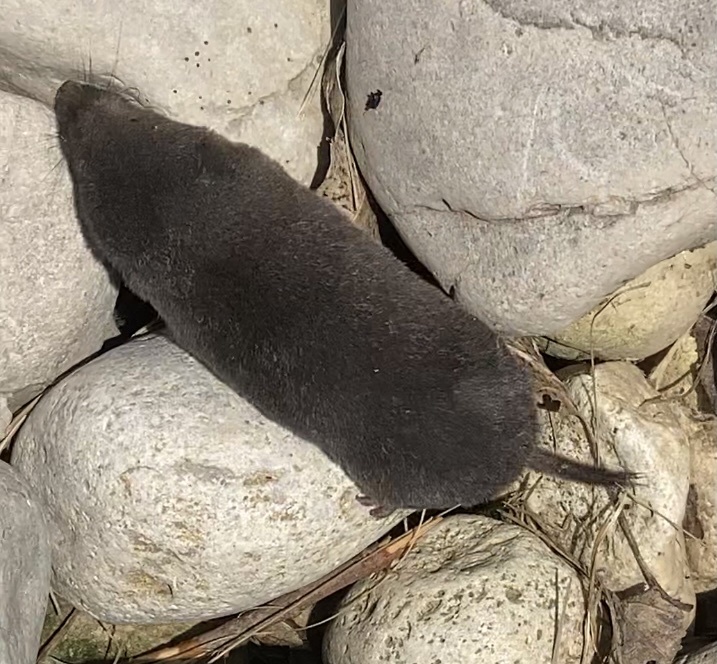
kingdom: Animalia
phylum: Chordata
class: Mammalia
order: Soricomorpha
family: Soricidae
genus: Blarina
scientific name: Blarina brevicauda
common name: Northern short-tailed shrew
